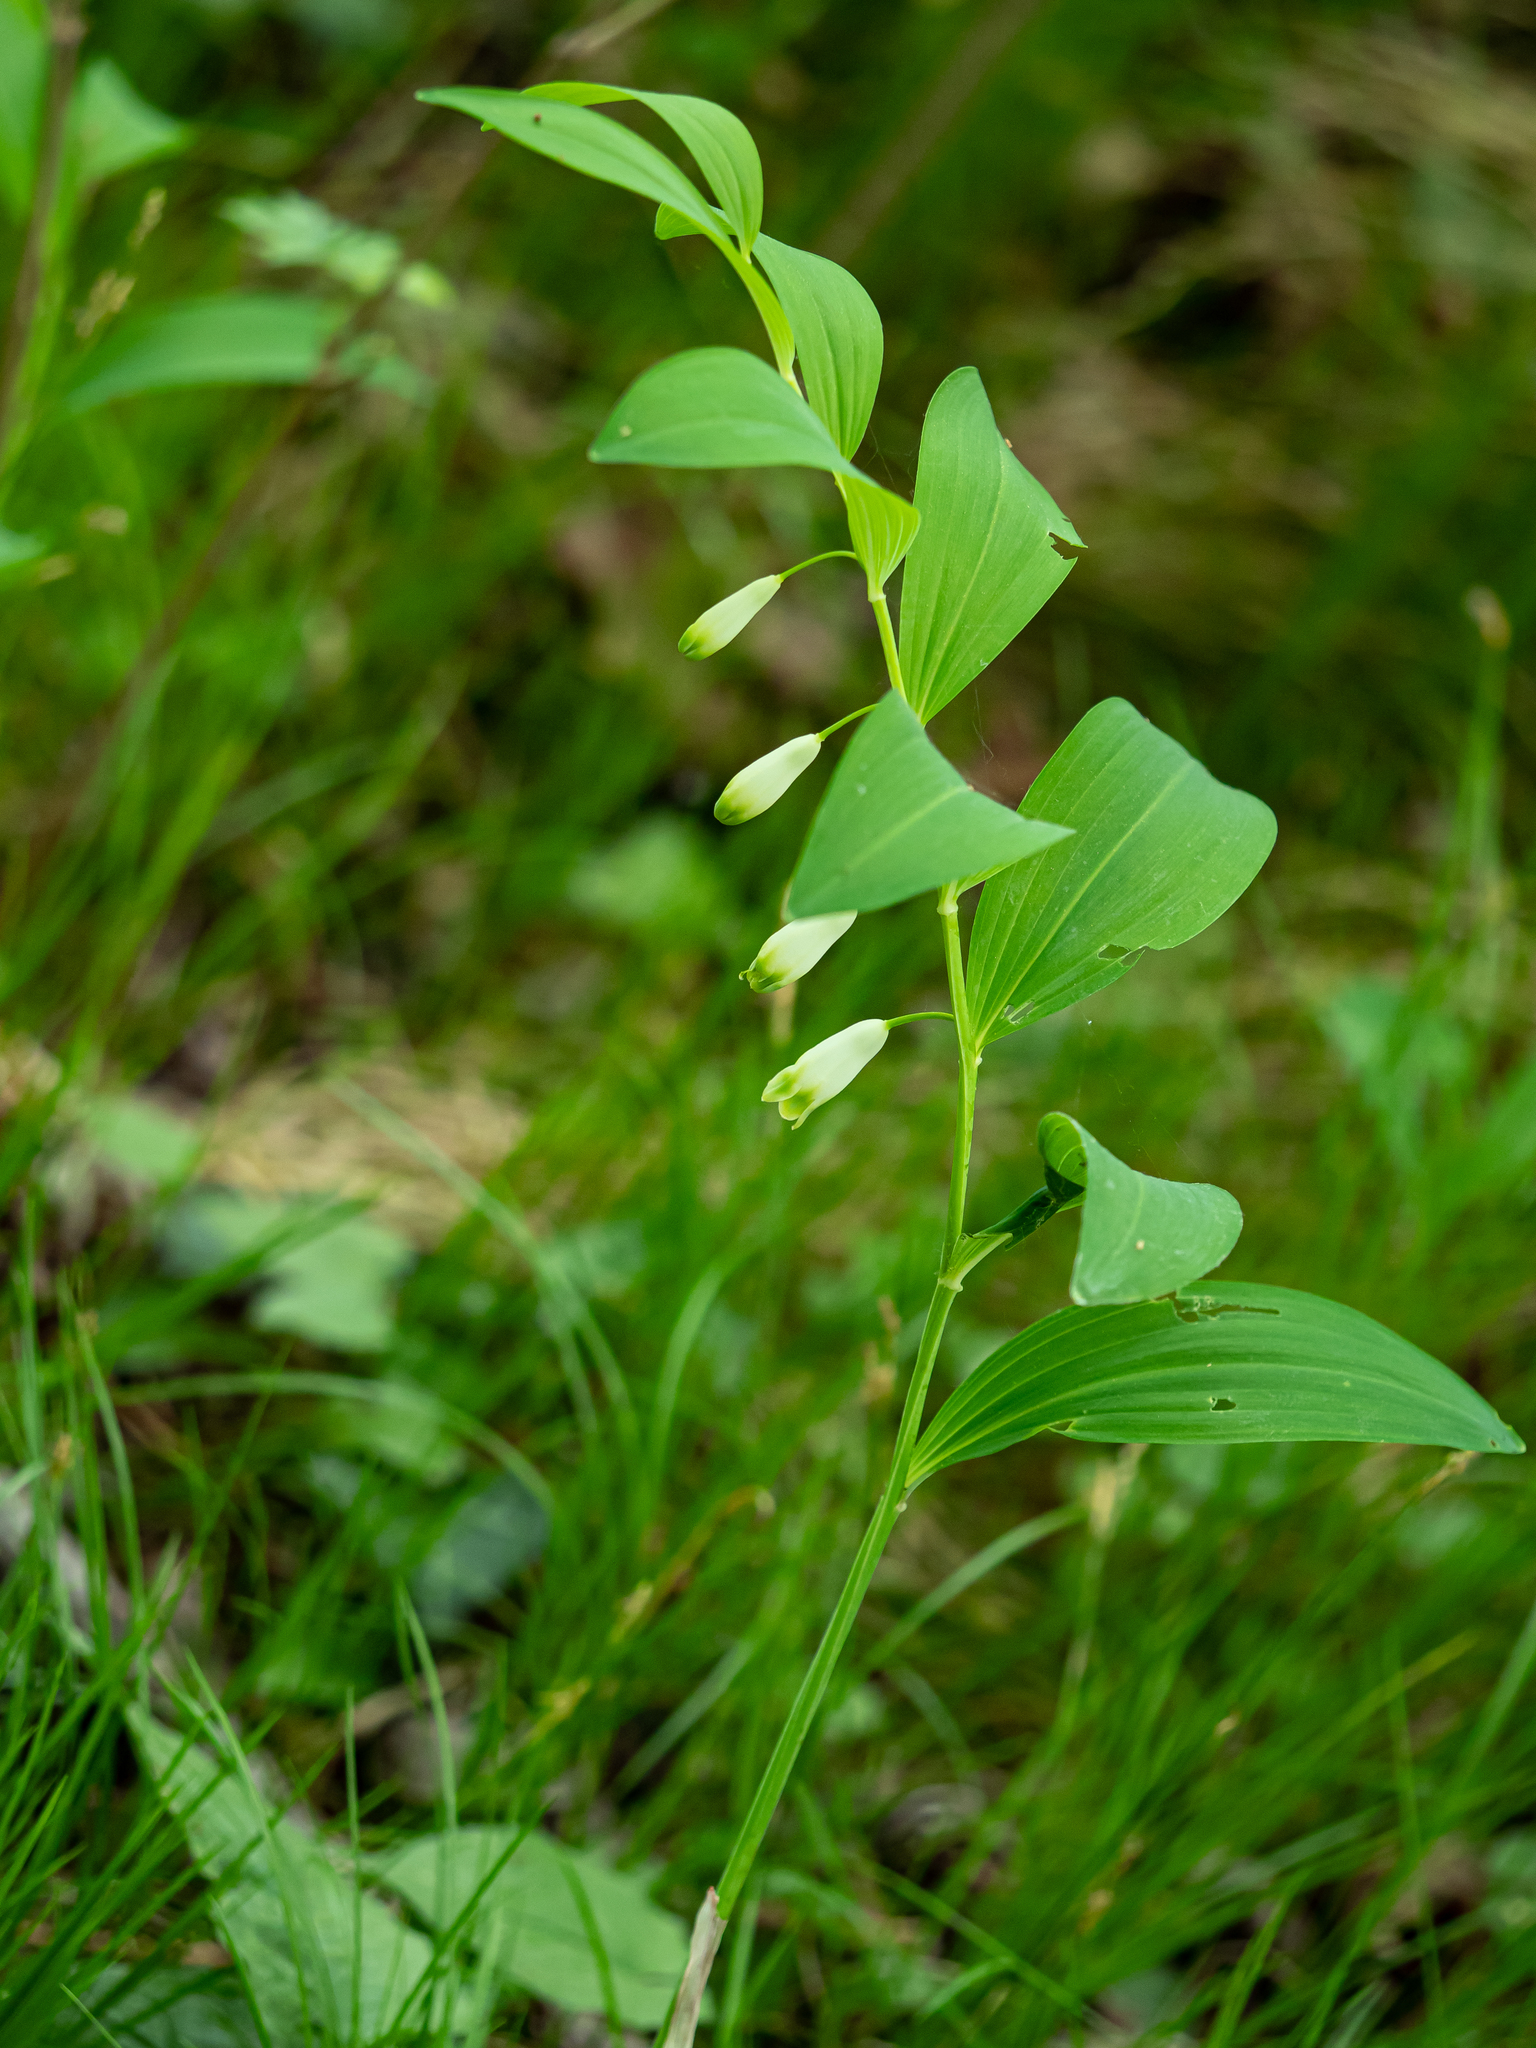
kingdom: Plantae
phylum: Tracheophyta
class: Liliopsida
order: Asparagales
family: Asparagaceae
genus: Polygonatum
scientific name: Polygonatum odoratum
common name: Angular solomon's-seal
